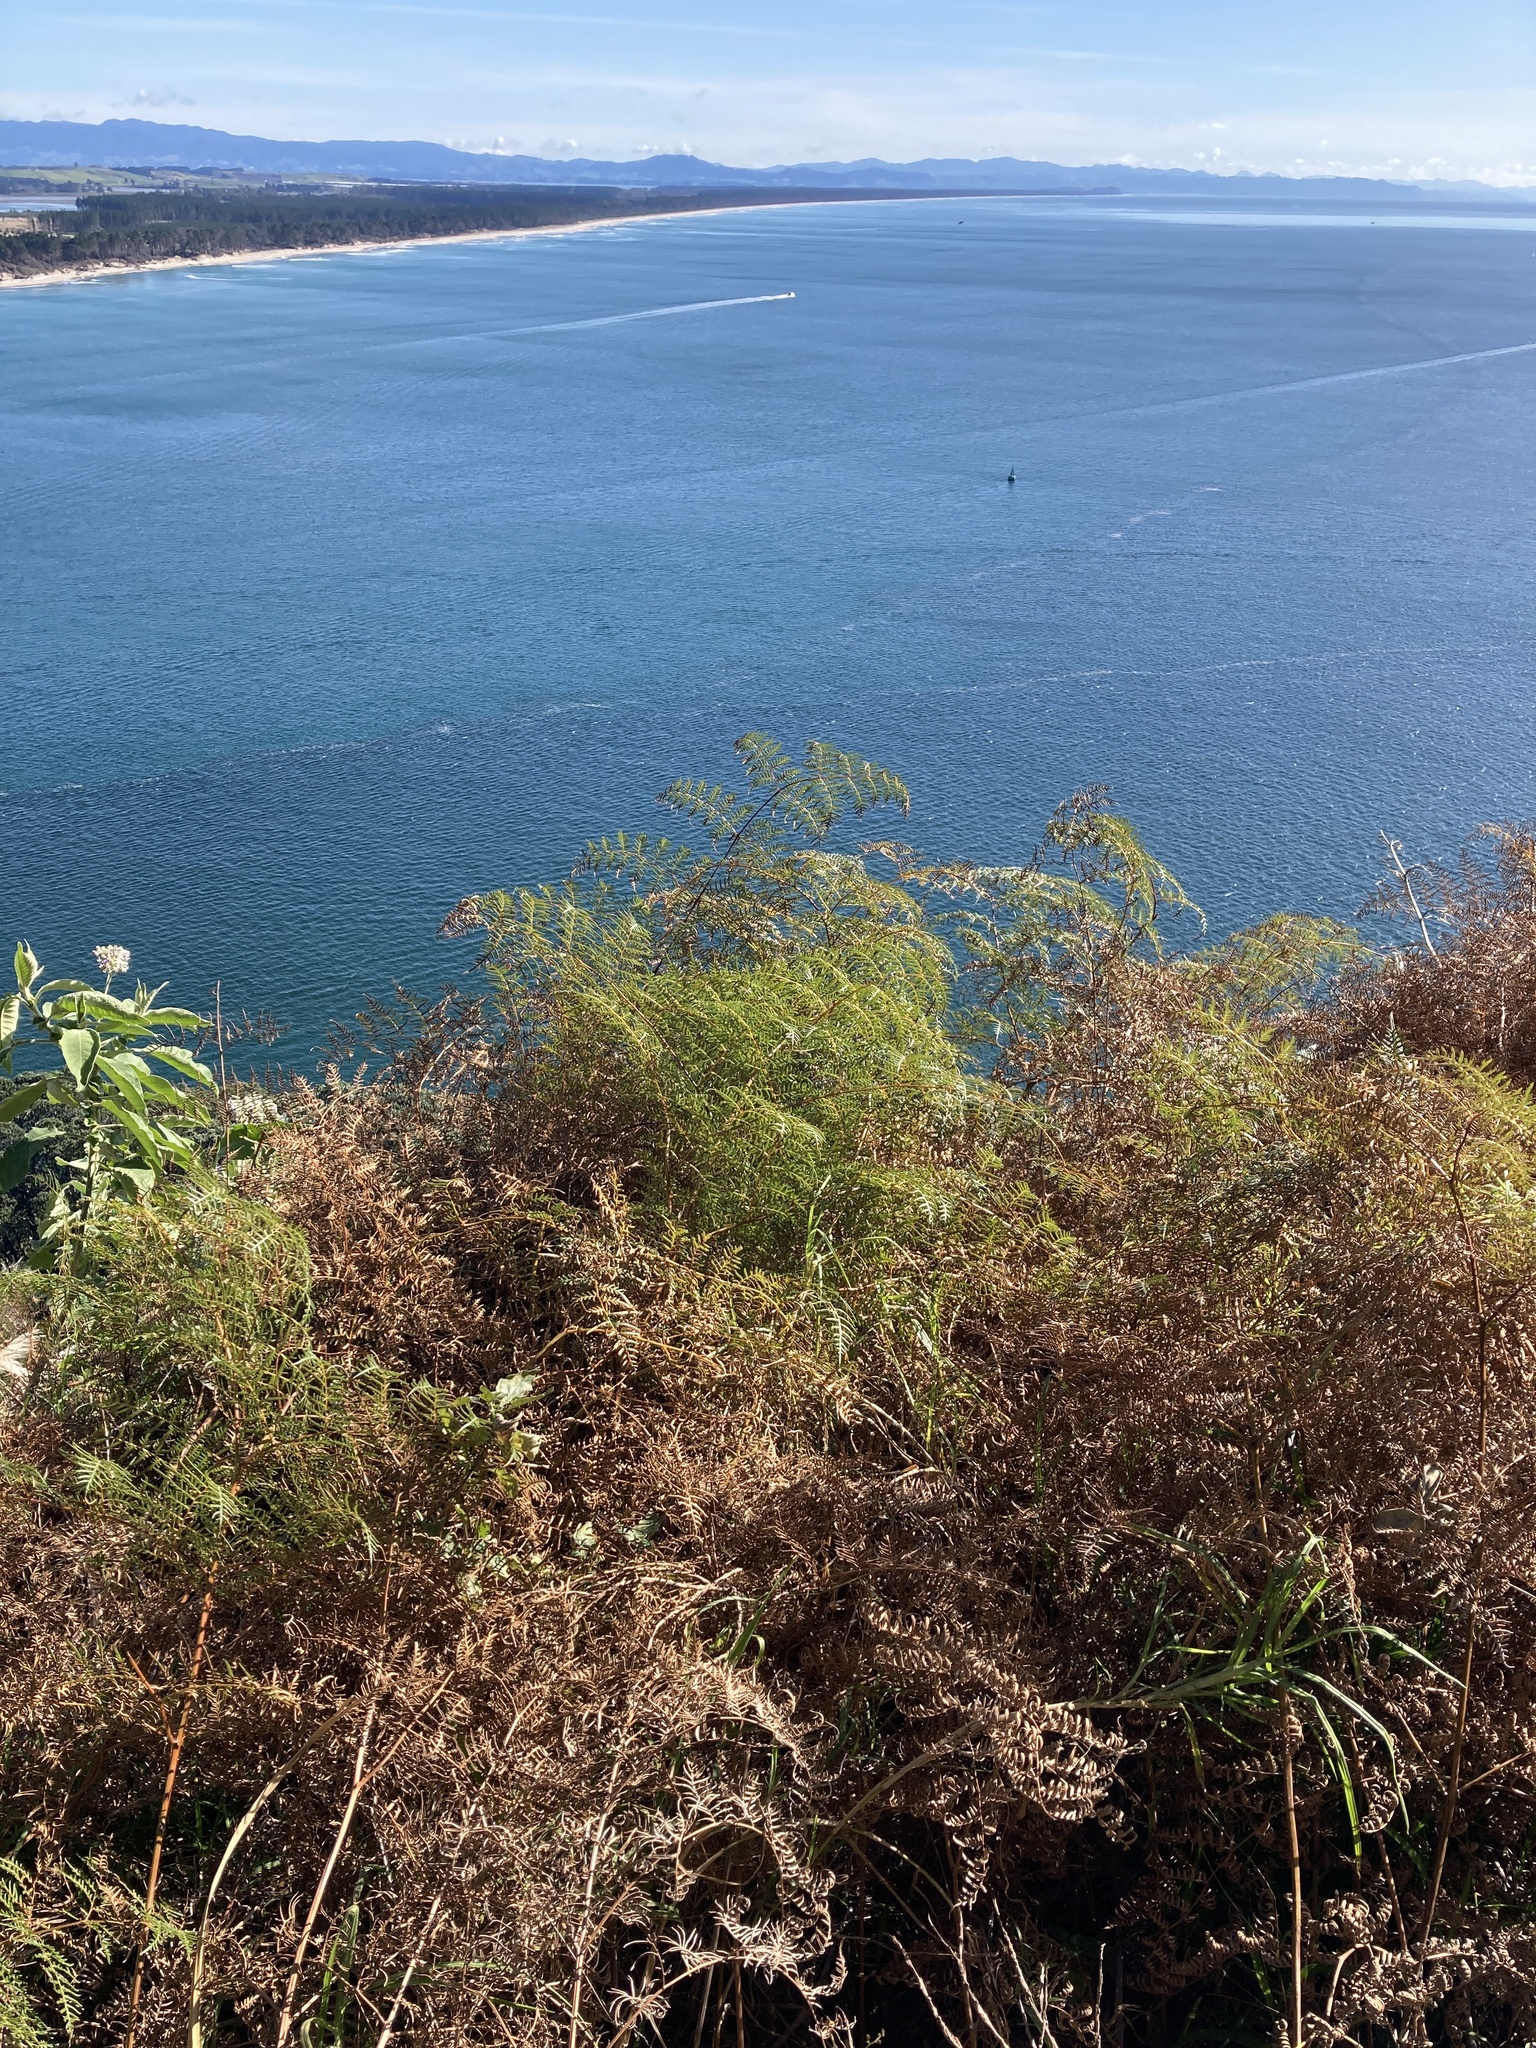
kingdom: Plantae
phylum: Tracheophyta
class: Polypodiopsida
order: Polypodiales
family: Dennstaedtiaceae
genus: Pteridium
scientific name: Pteridium esculentum
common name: Bracken fern
